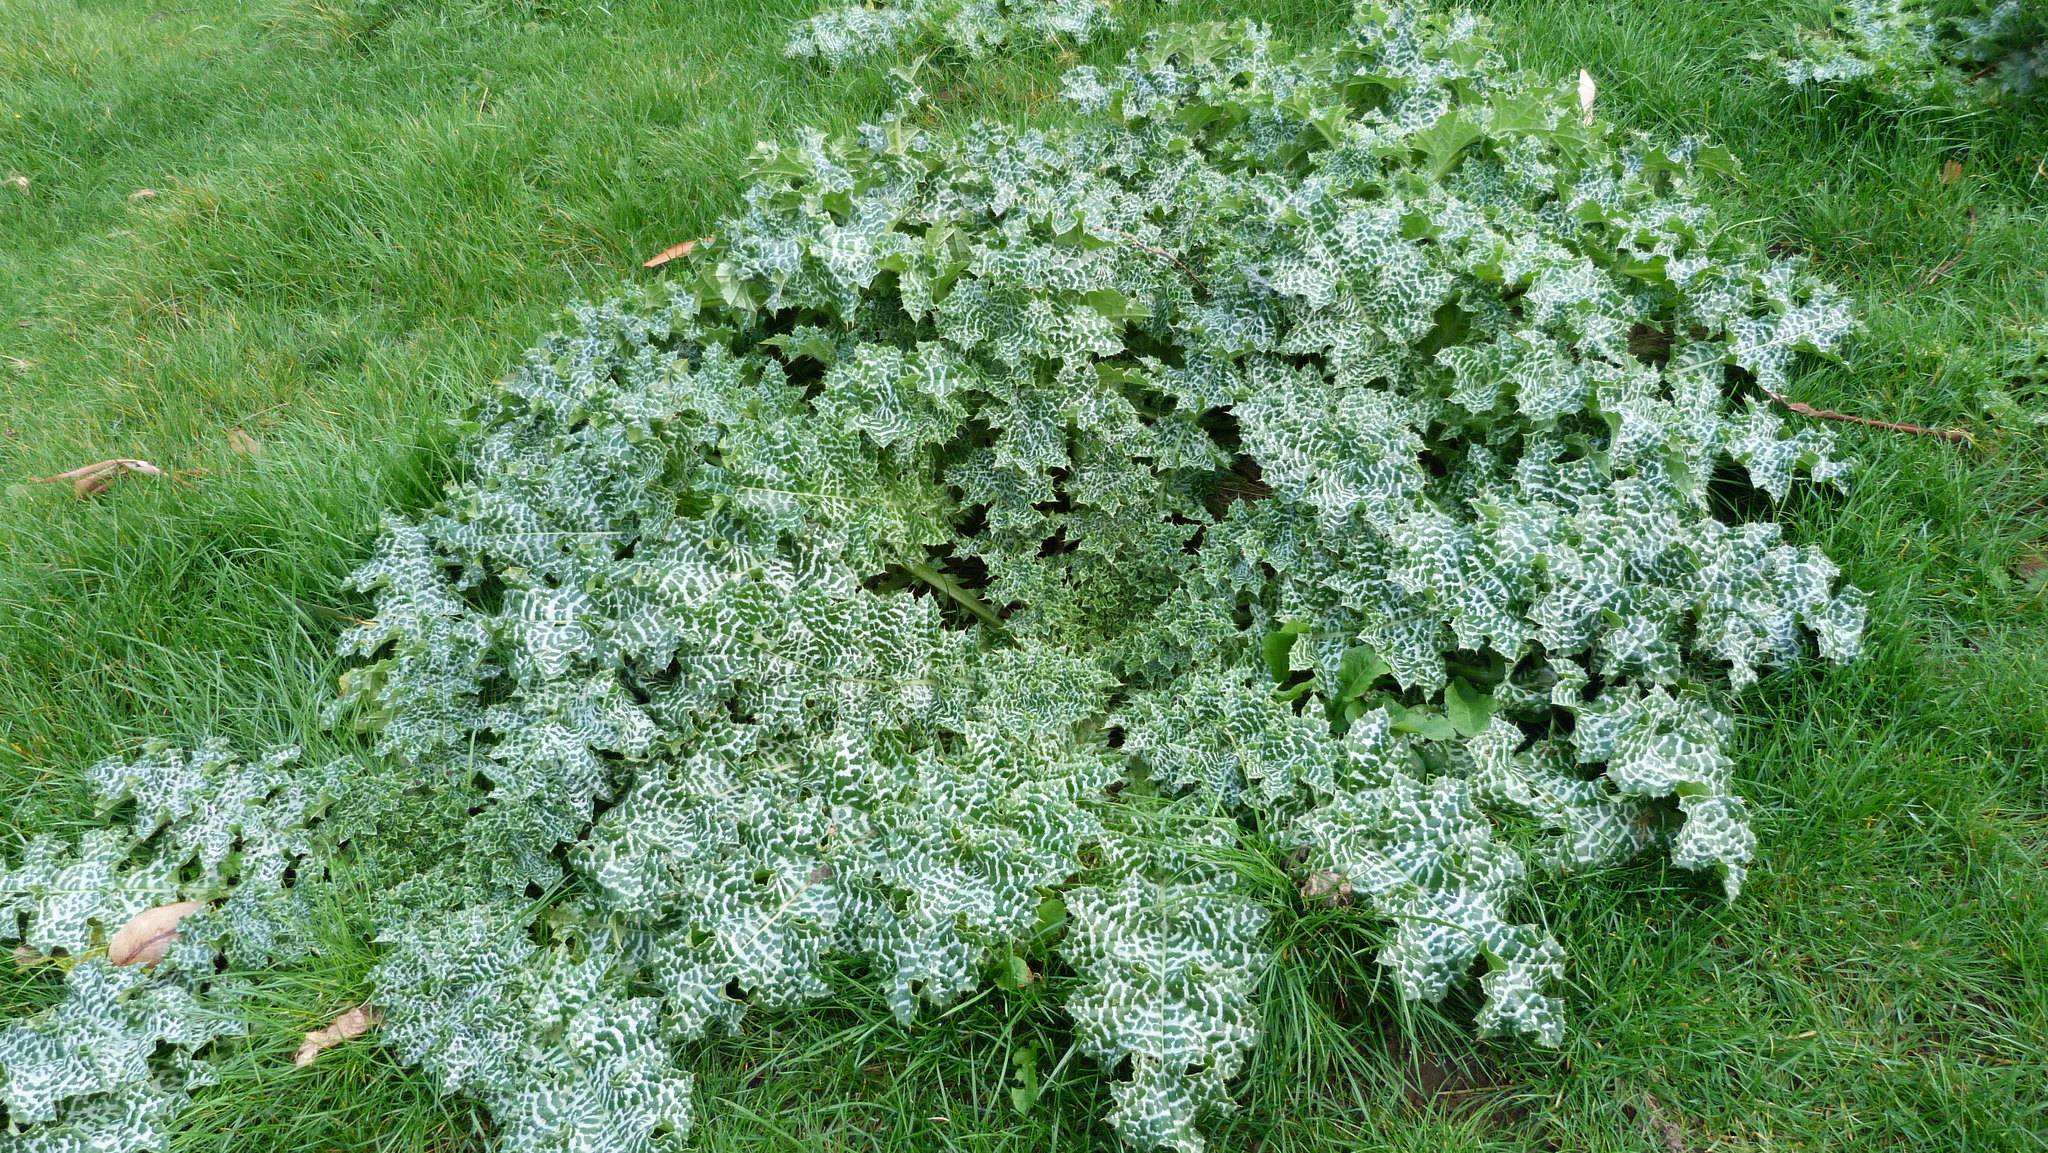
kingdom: Plantae
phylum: Tracheophyta
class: Magnoliopsida
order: Asterales
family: Asteraceae
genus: Silybum
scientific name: Silybum marianum
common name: Milk thistle
